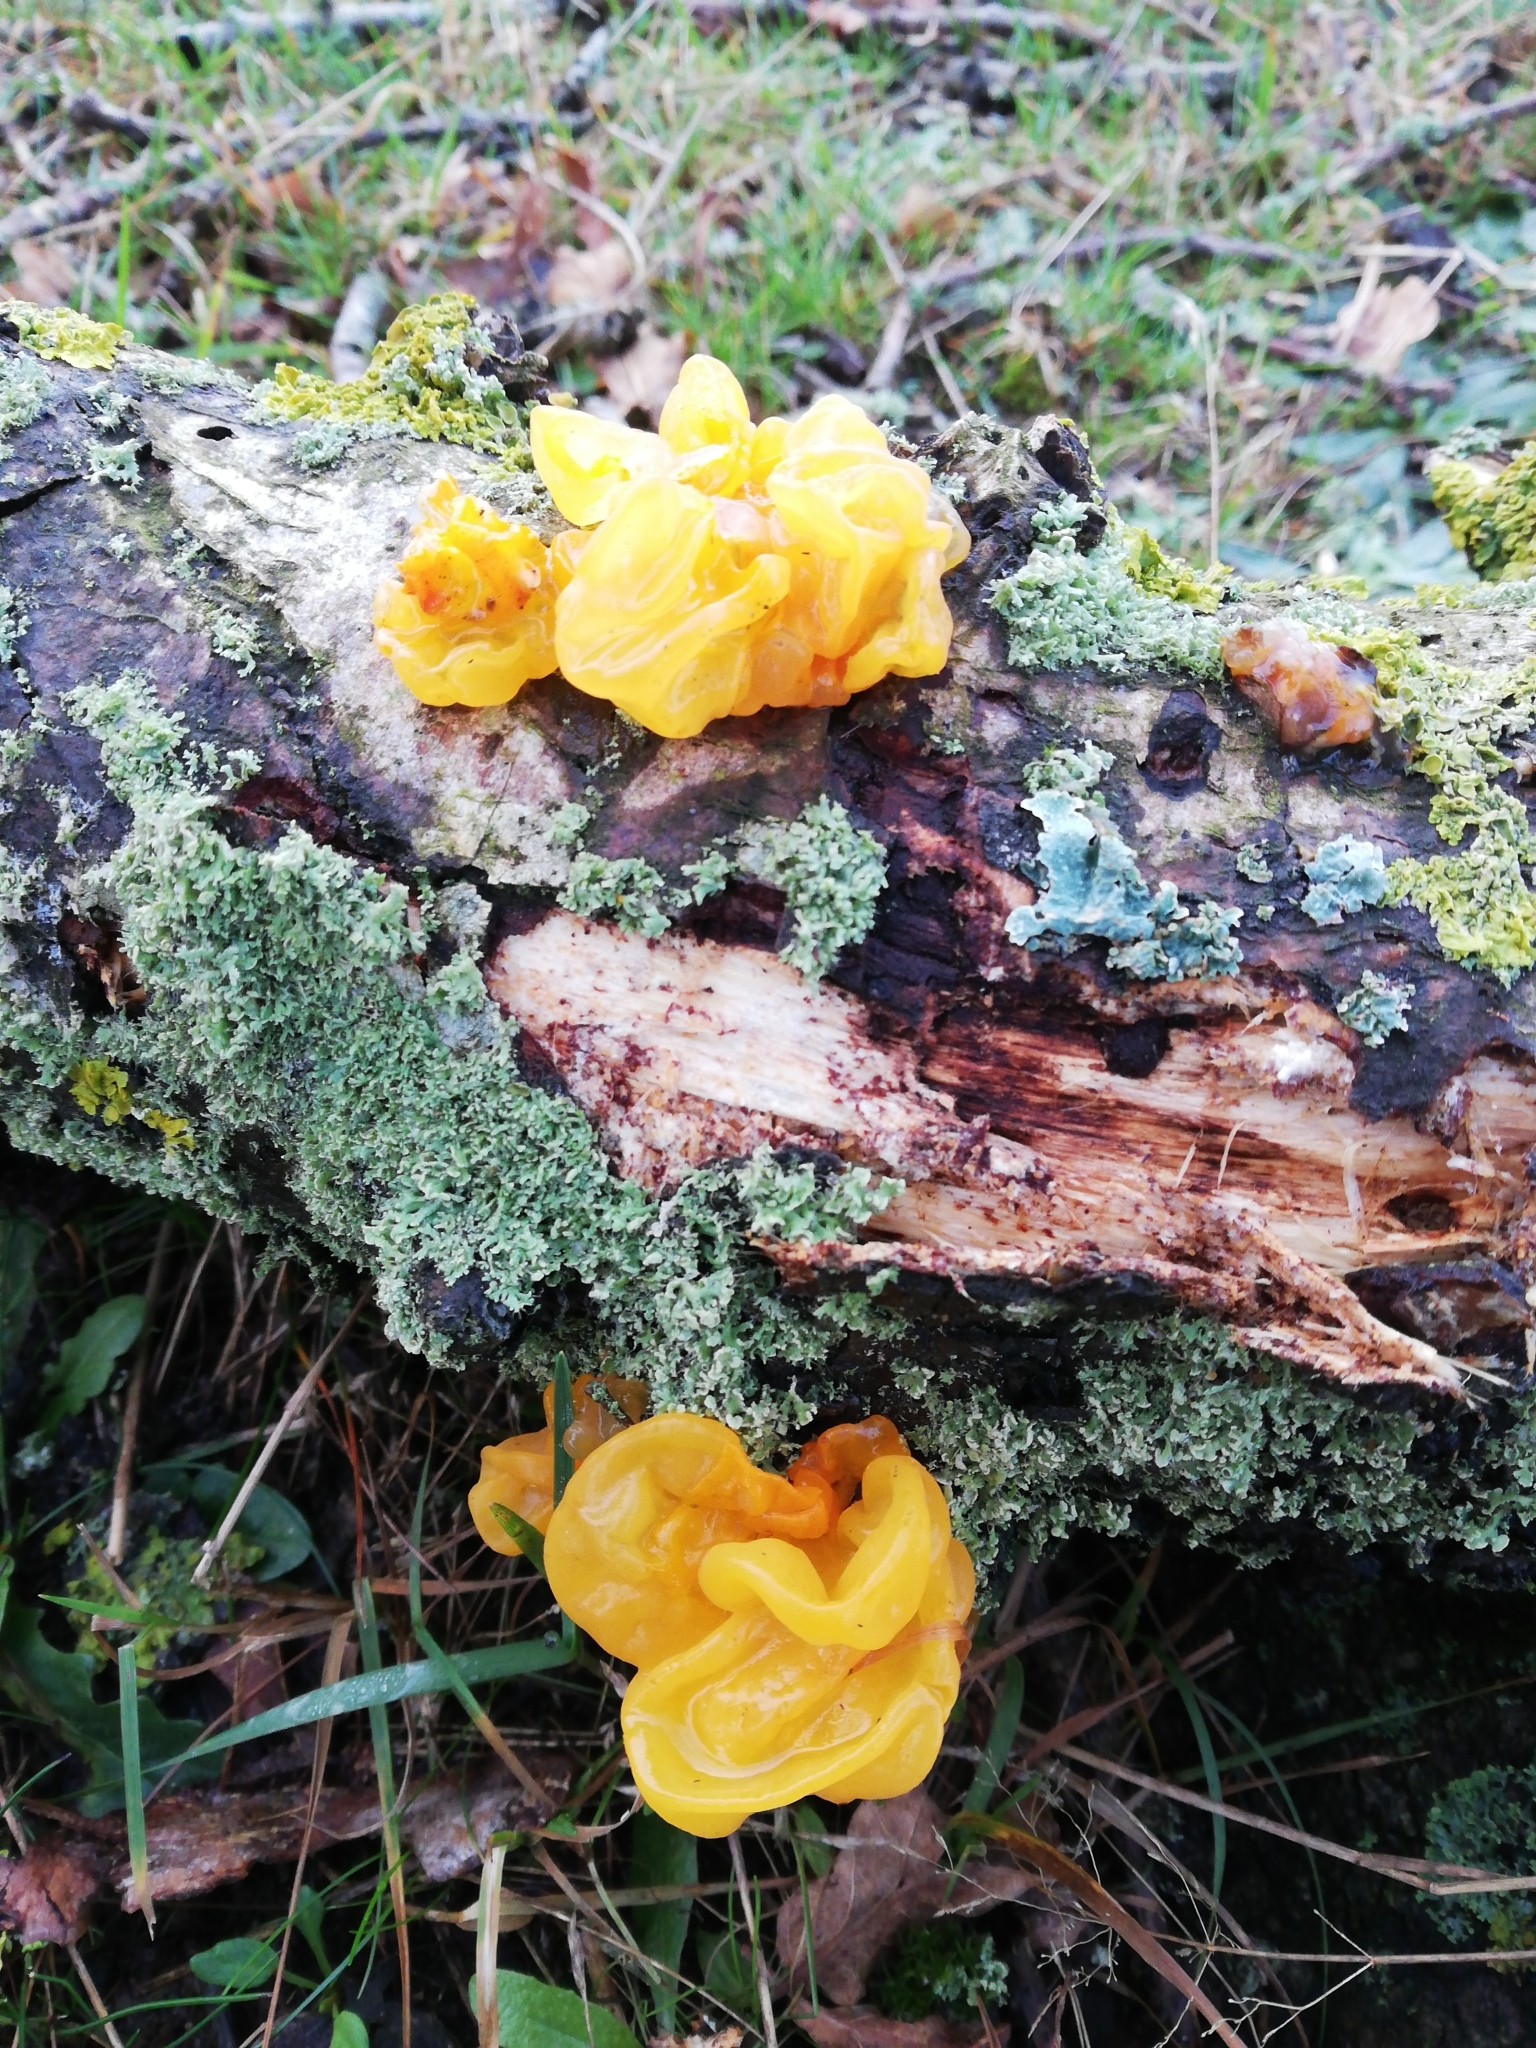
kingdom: Fungi
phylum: Basidiomycota
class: Tremellomycetes
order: Tremellales
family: Tremellaceae
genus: Tremella
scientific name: Tremella mesenterica
